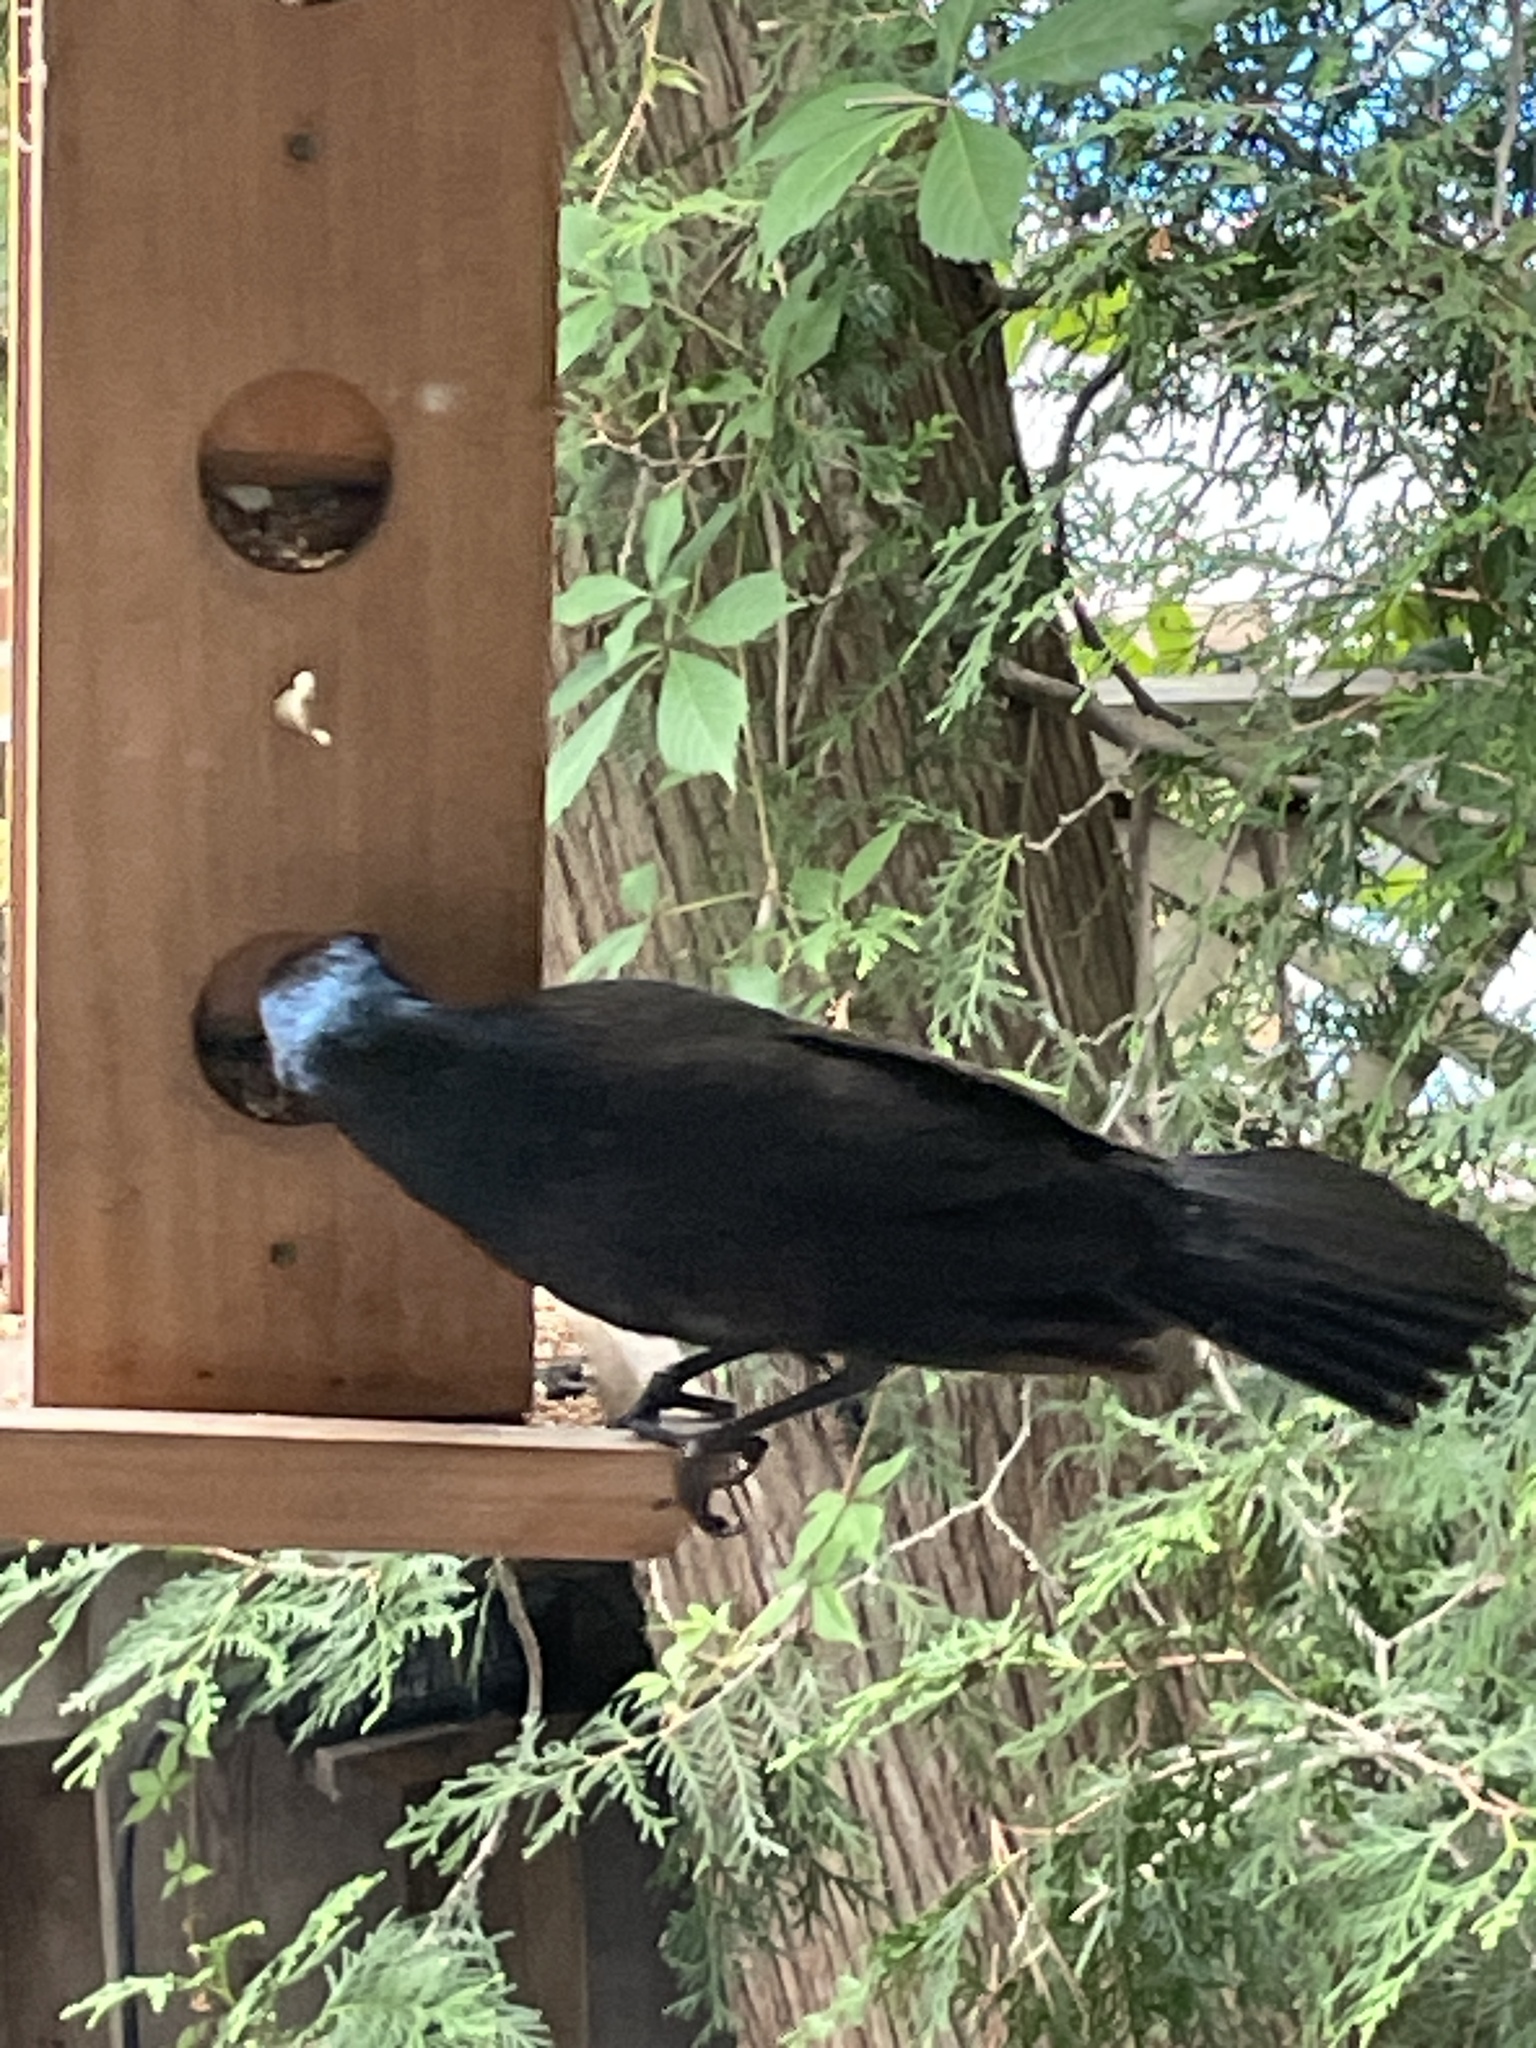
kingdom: Animalia
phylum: Chordata
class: Aves
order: Passeriformes
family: Icteridae
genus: Quiscalus
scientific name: Quiscalus quiscula
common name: Common grackle
